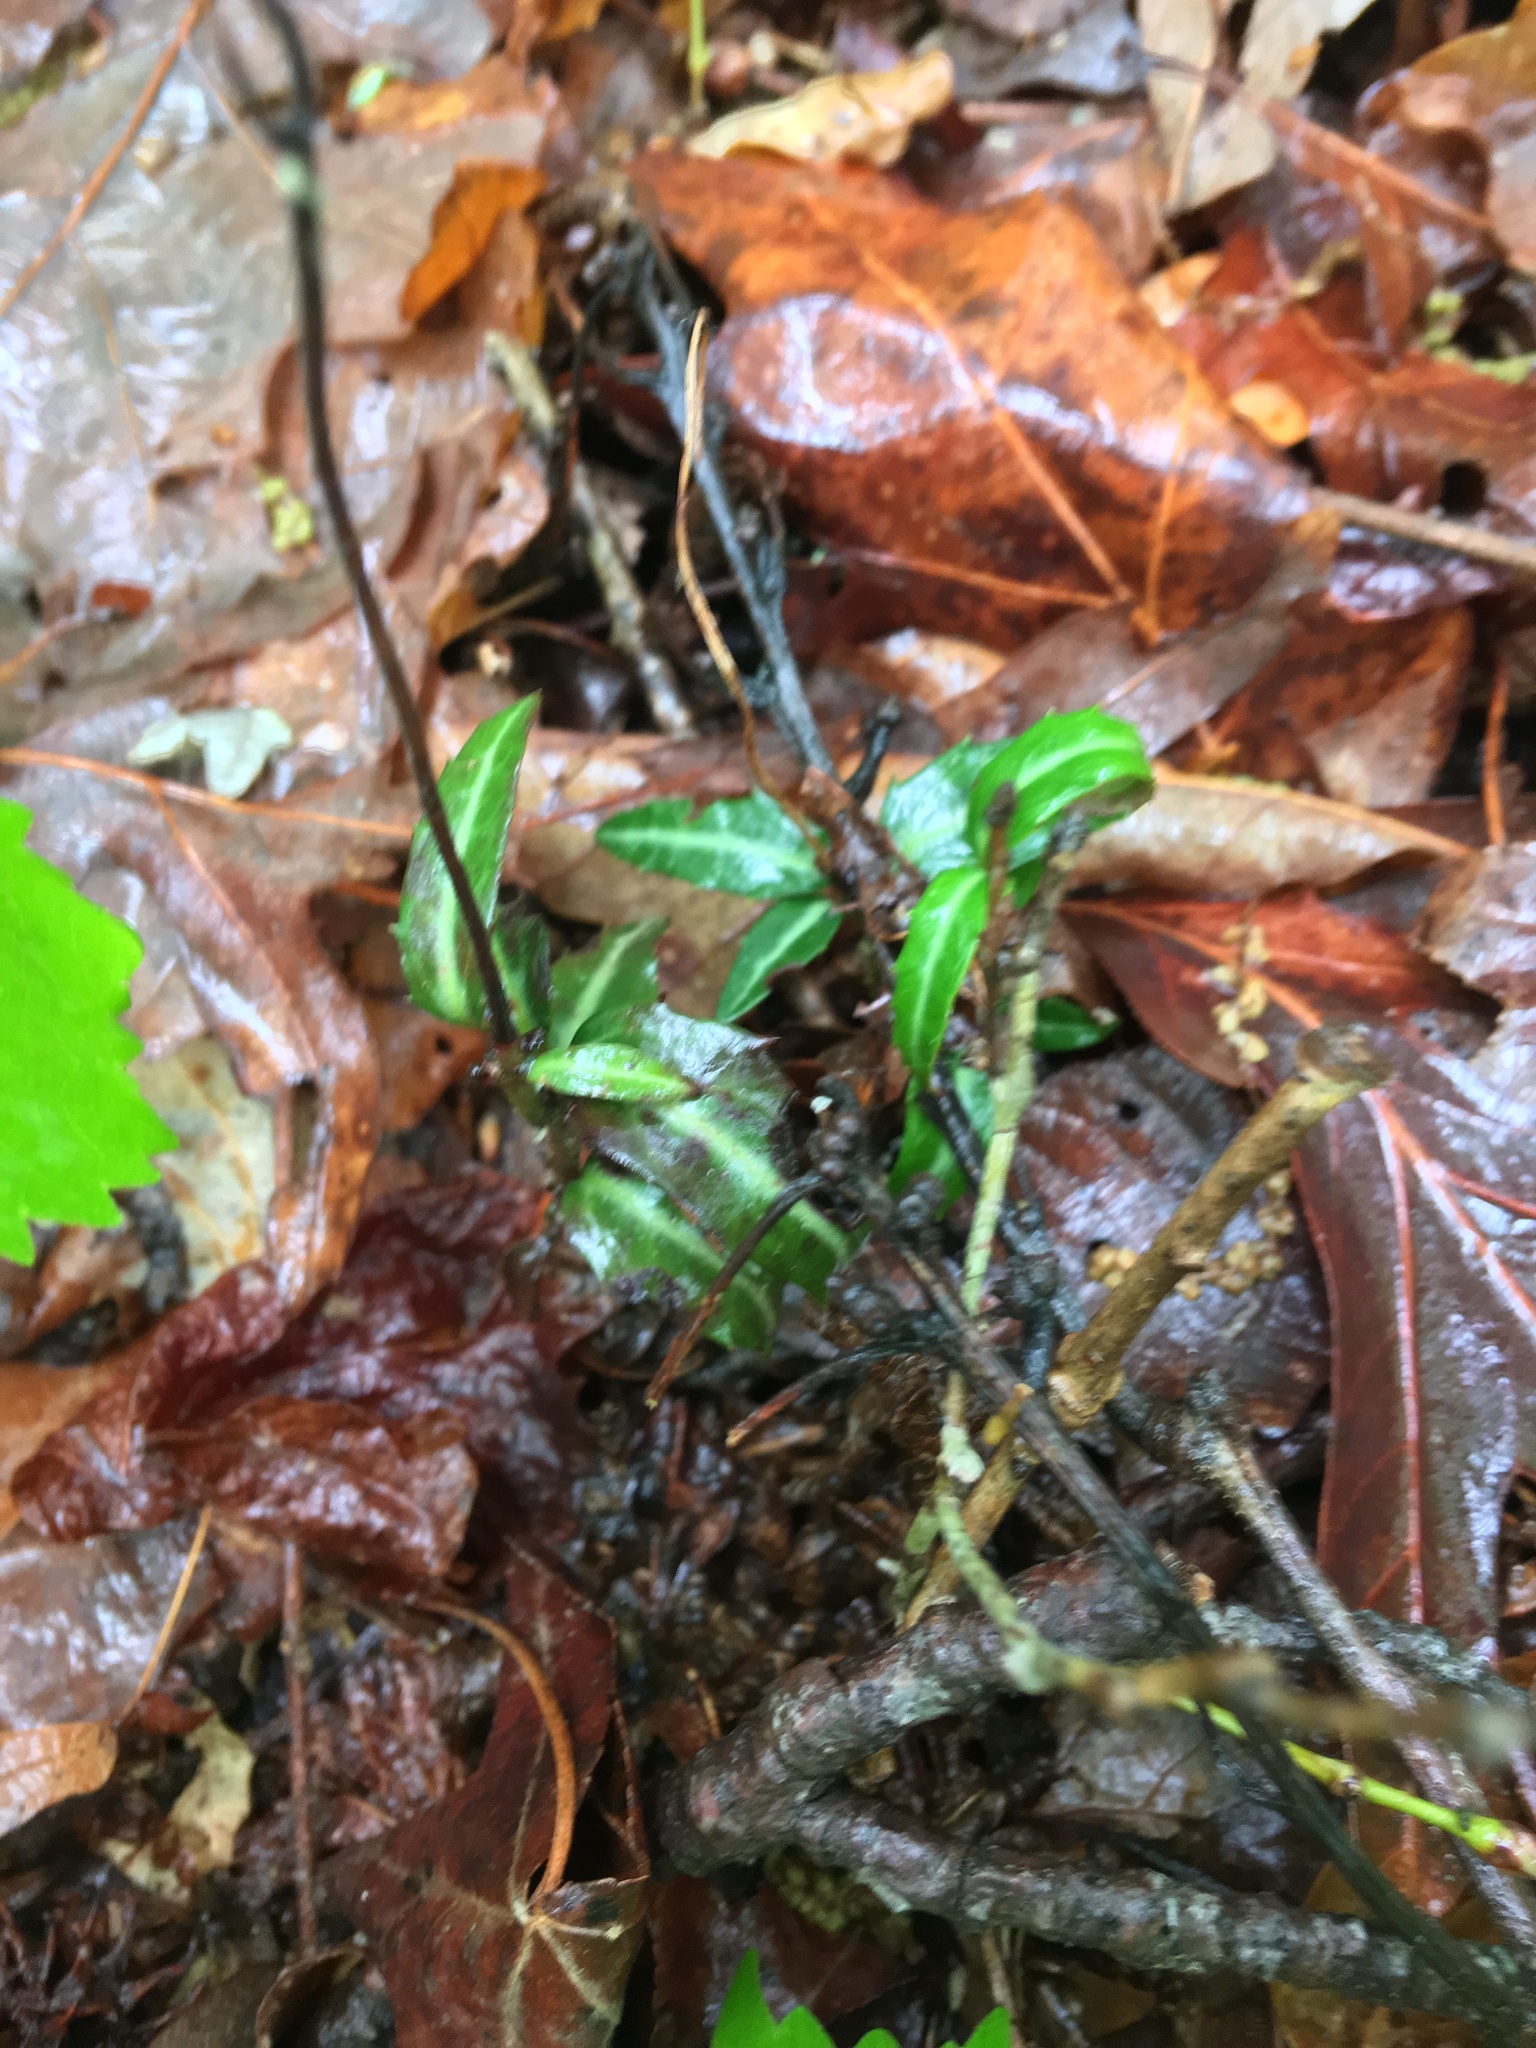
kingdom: Plantae
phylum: Tracheophyta
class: Magnoliopsida
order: Ericales
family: Ericaceae
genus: Chimaphila
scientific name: Chimaphila maculata
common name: Spotted pipsissewa
